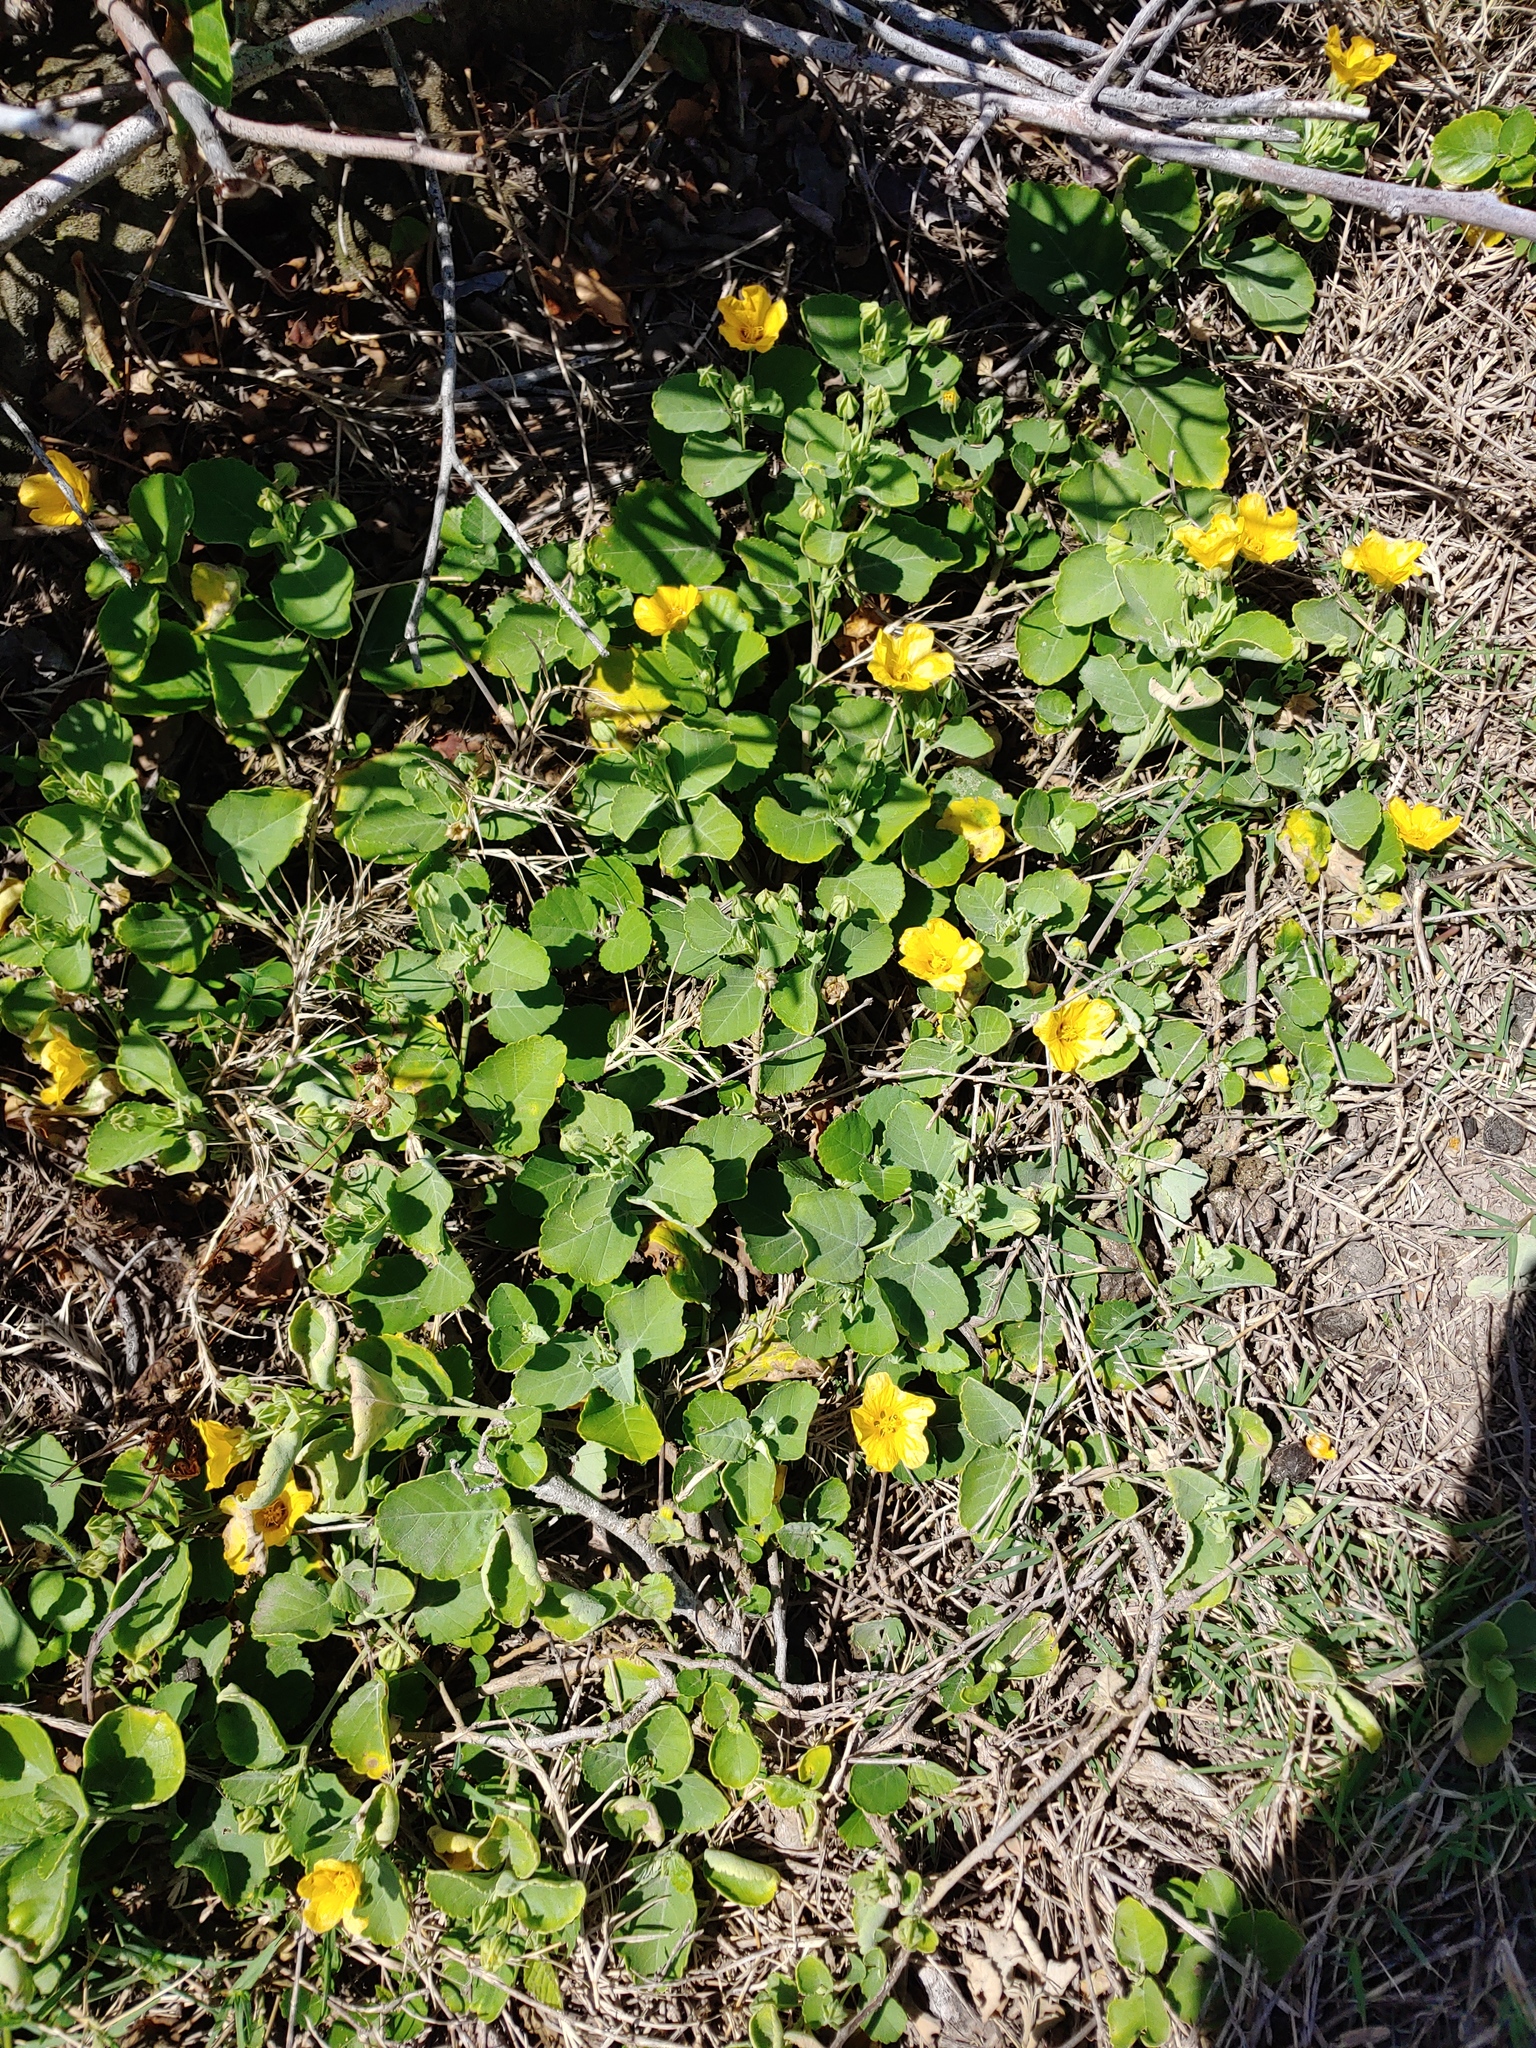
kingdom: Plantae
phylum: Tracheophyta
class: Magnoliopsida
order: Malvales
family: Malvaceae
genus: Sida
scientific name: Sida fallax
